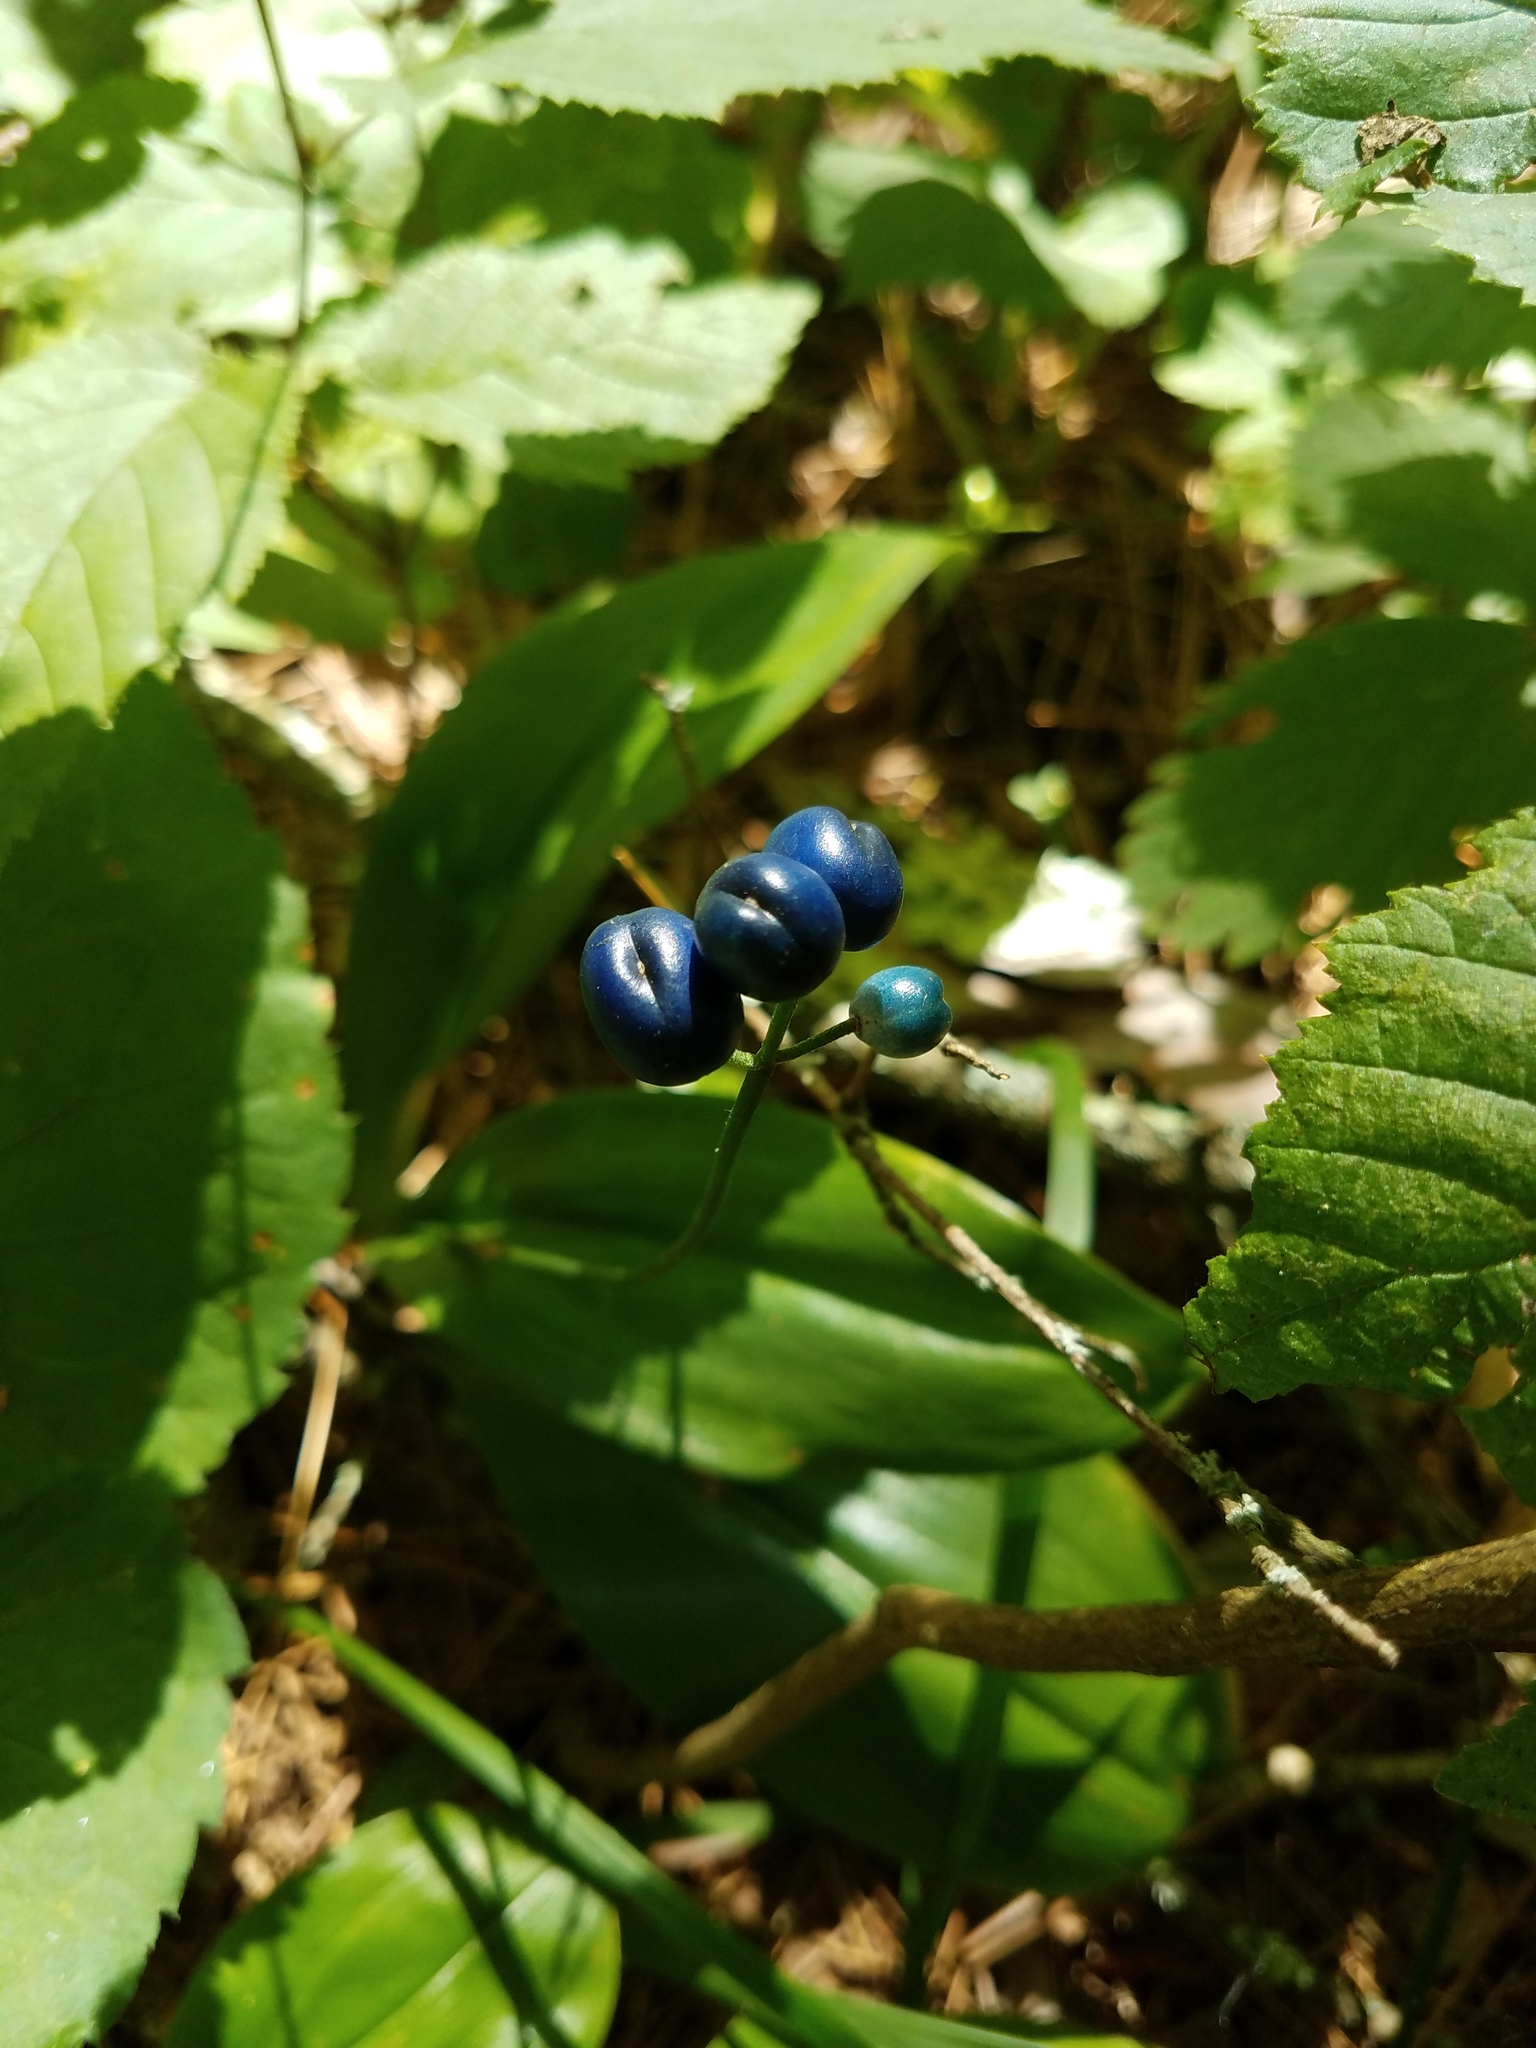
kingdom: Plantae
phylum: Tracheophyta
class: Liliopsida
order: Liliales
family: Liliaceae
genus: Clintonia
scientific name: Clintonia borealis
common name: Yellow clintonia
